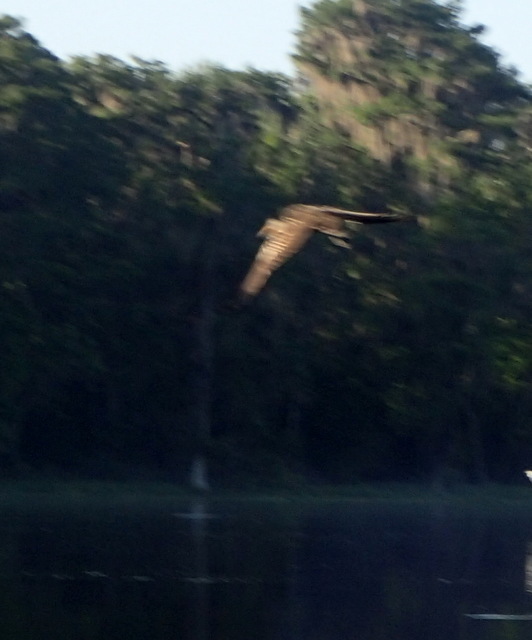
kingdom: Animalia
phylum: Chordata
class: Aves
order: Gruiformes
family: Aramidae
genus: Aramus
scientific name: Aramus guarauna
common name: Limpkin
